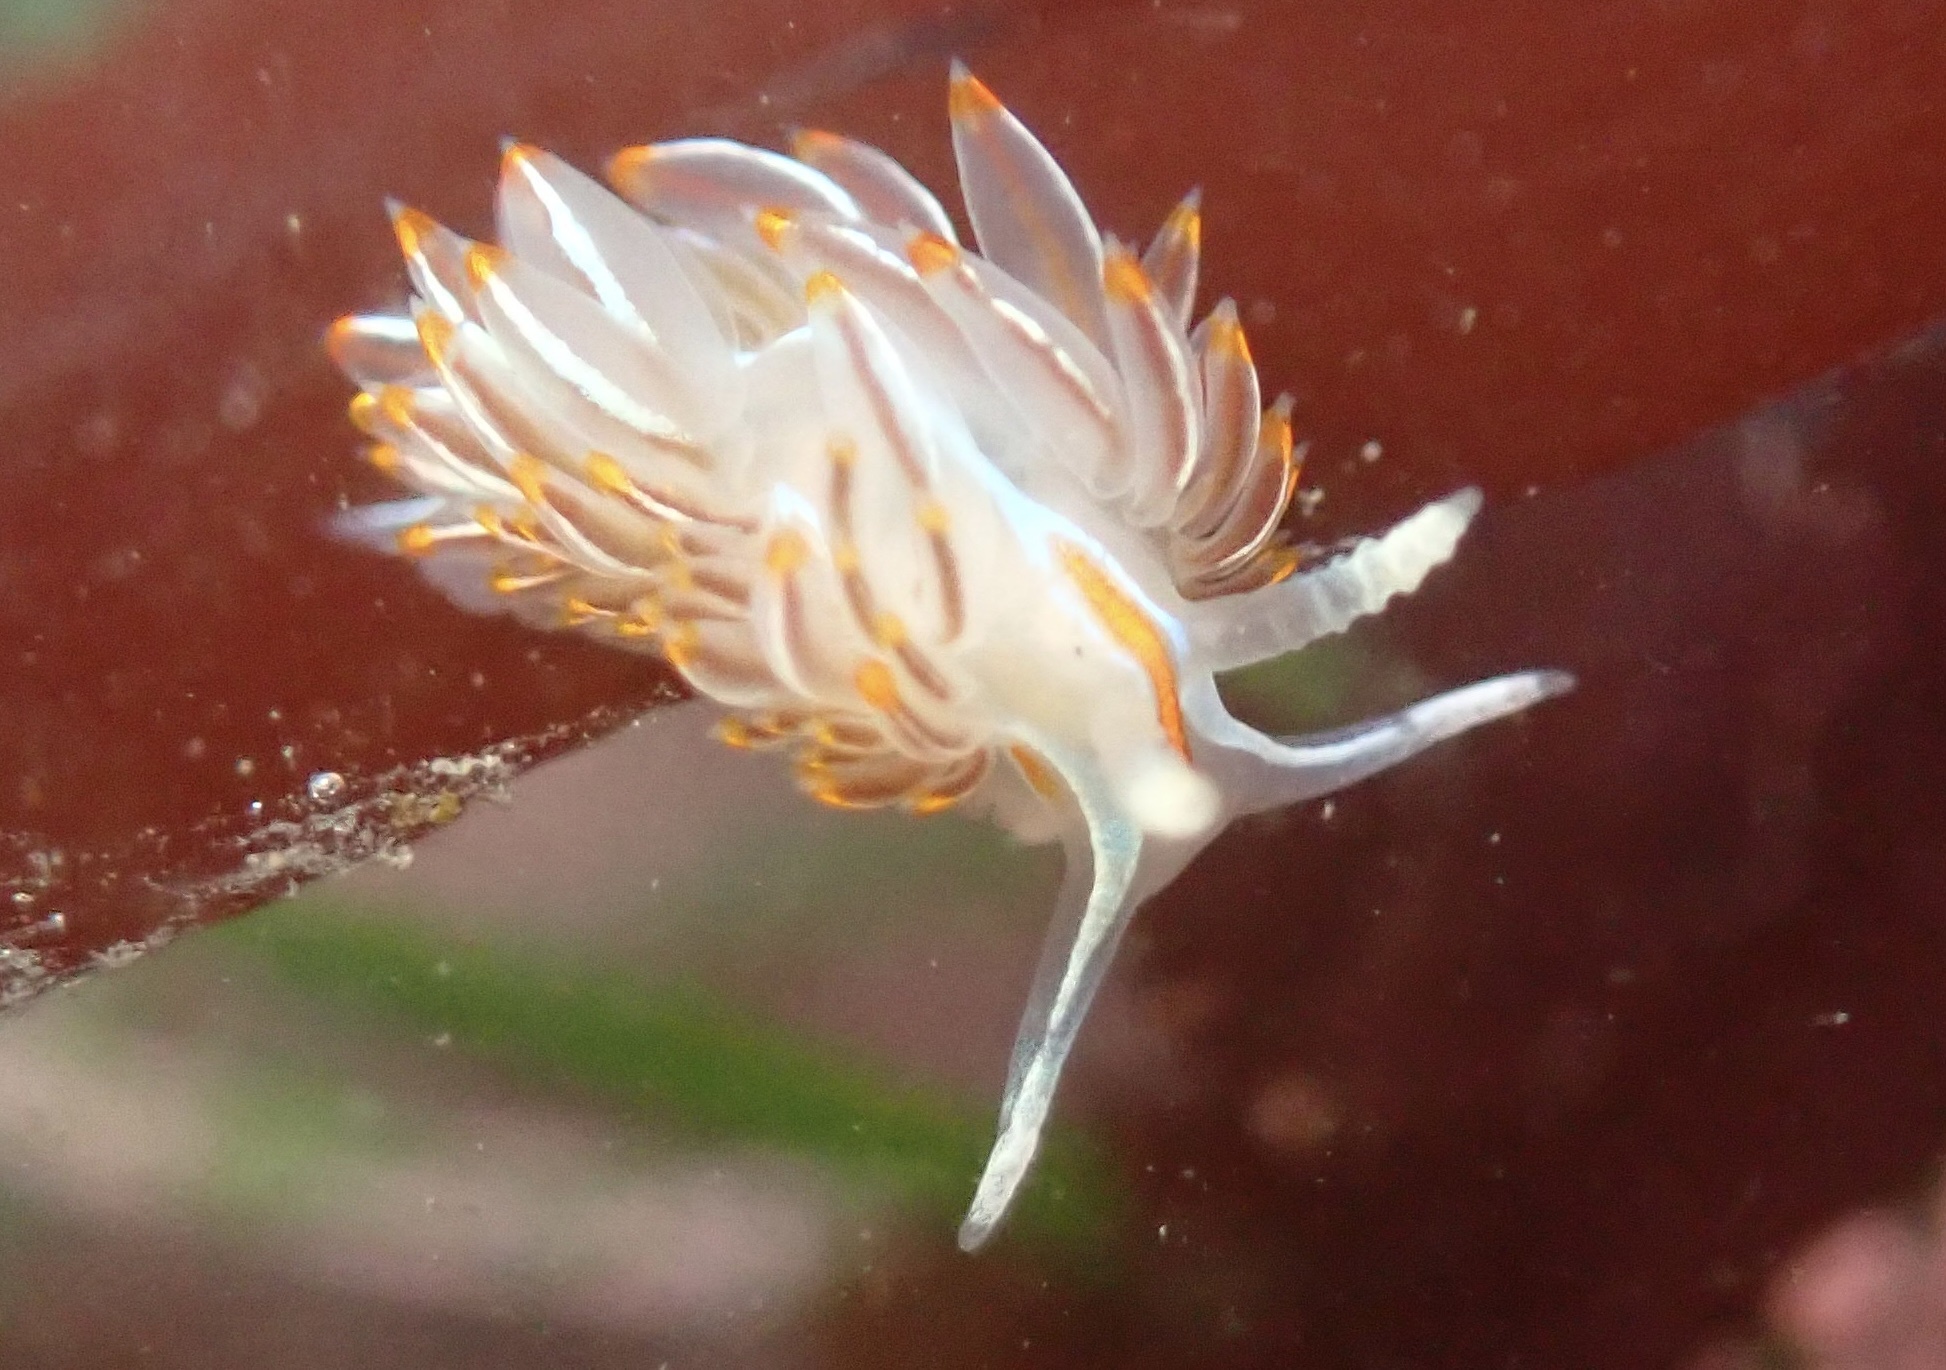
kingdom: Animalia
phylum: Mollusca
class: Gastropoda
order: Nudibranchia
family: Myrrhinidae
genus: Hermissenda
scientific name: Hermissenda crassicornis
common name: Hermissenda
